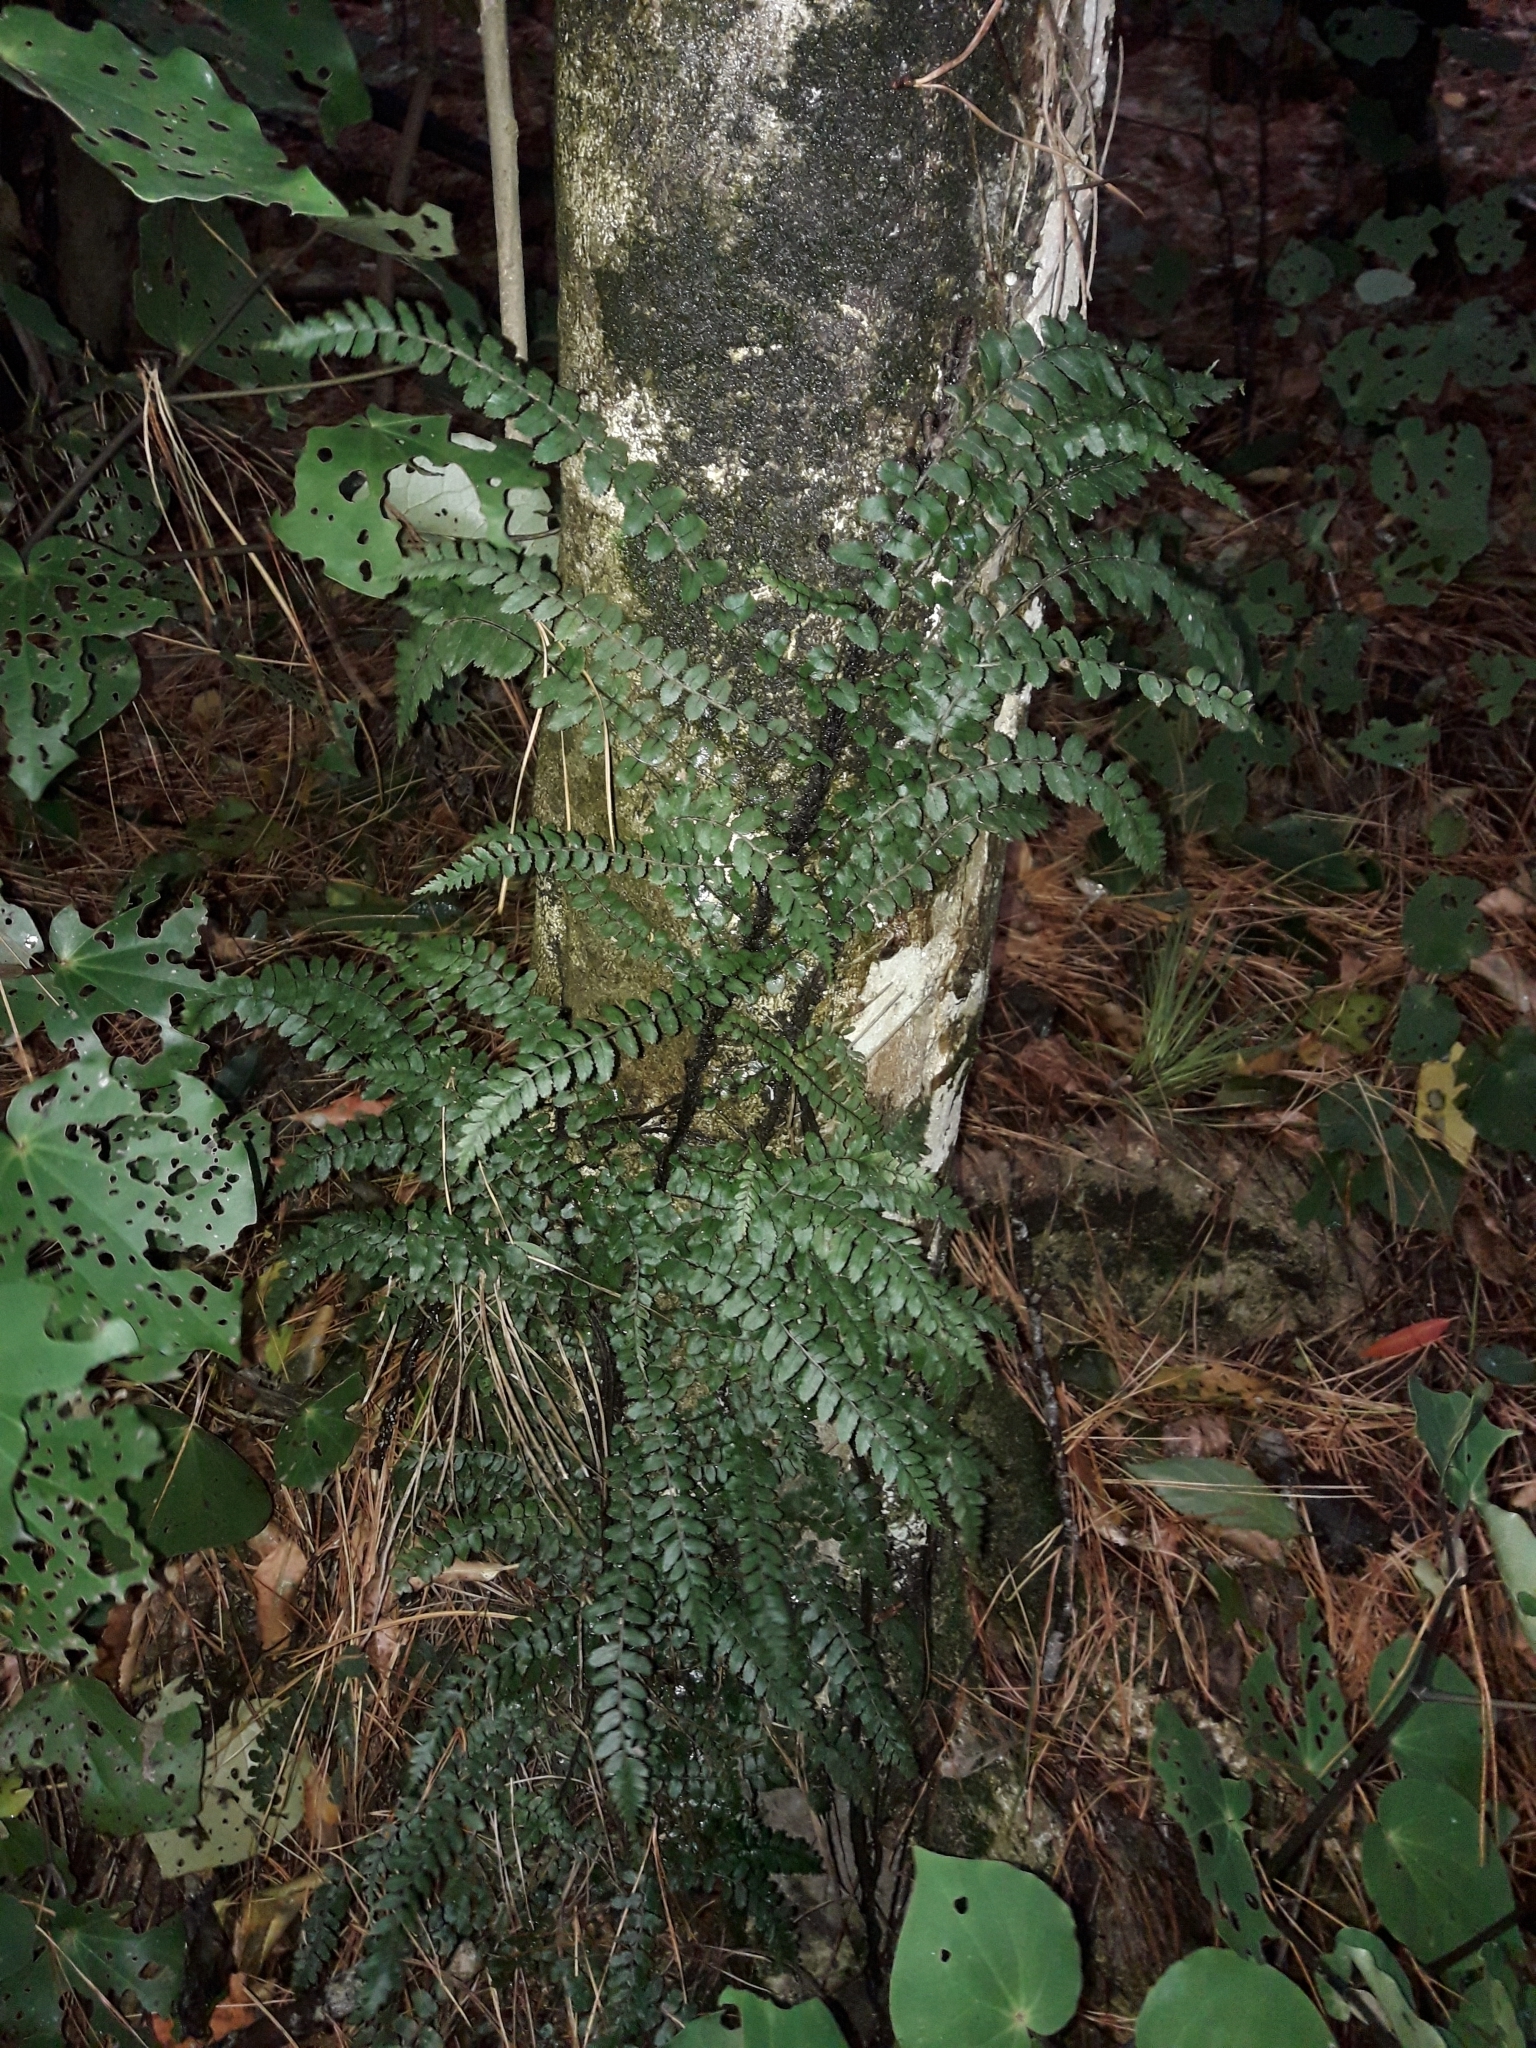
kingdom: Plantae
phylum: Tracheophyta
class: Polypodiopsida
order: Polypodiales
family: Blechnaceae
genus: Icarus
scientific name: Icarus filiformis
